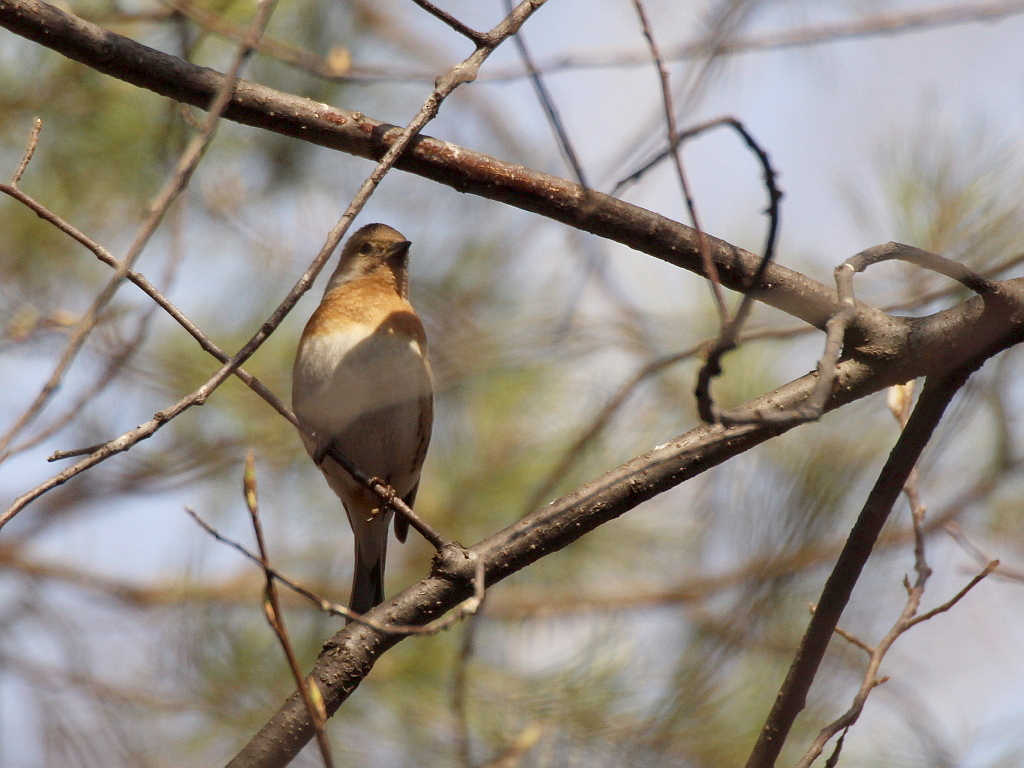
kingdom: Animalia
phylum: Chordata
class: Aves
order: Passeriformes
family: Fringillidae
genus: Fringilla
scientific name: Fringilla montifringilla
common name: Brambling
